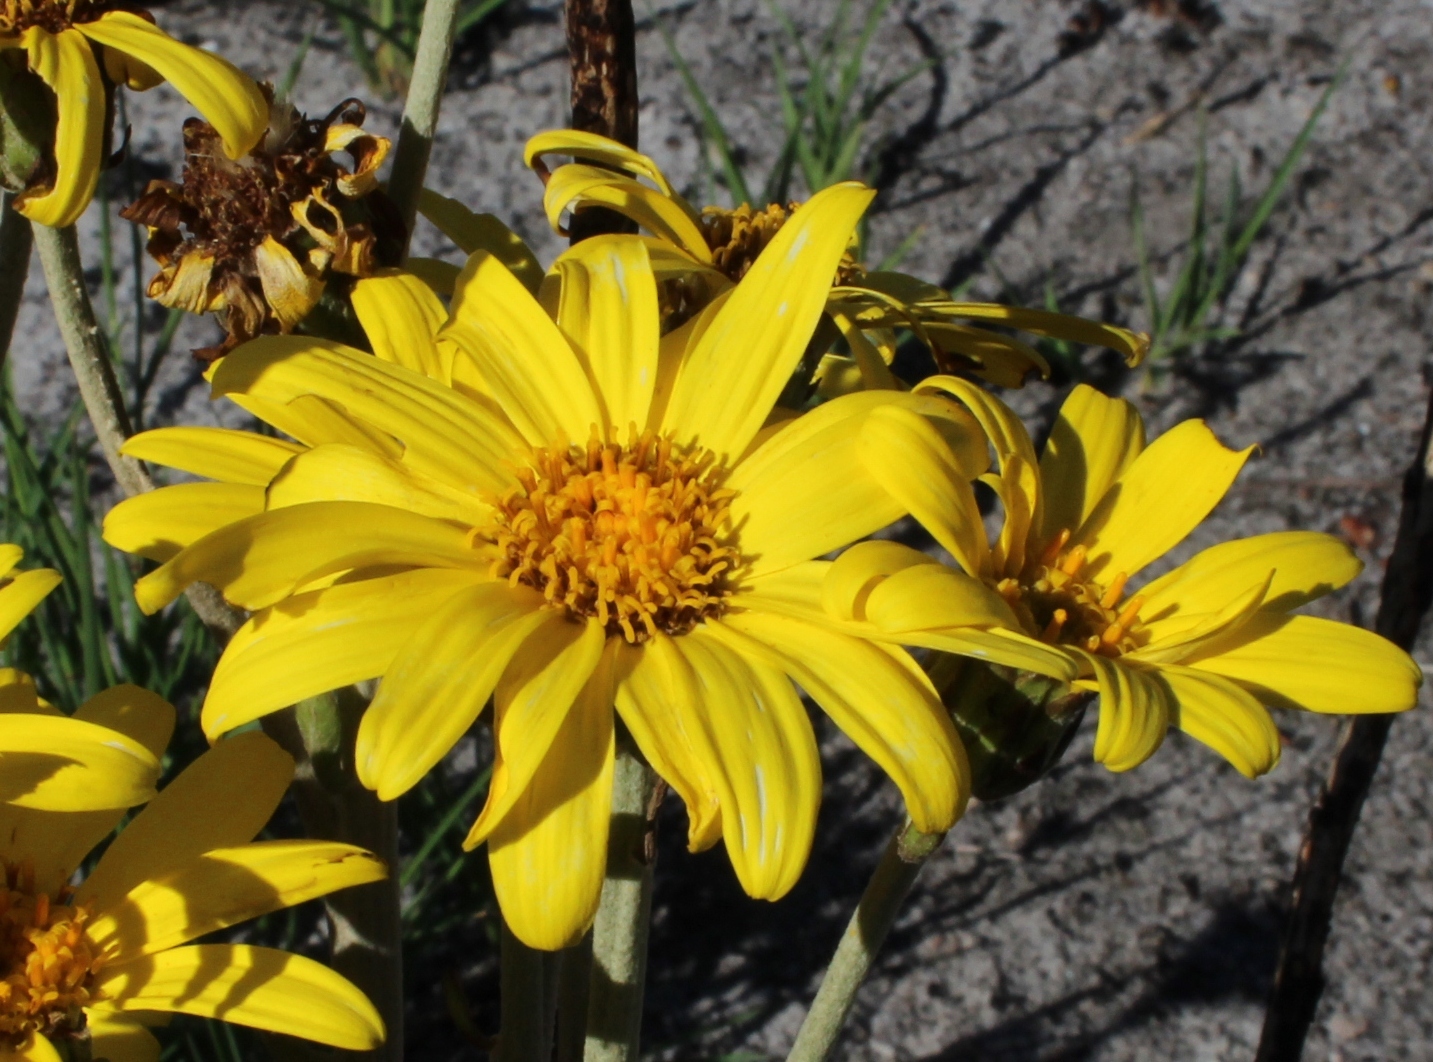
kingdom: Plantae
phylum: Tracheophyta
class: Magnoliopsida
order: Asterales
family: Asteraceae
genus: Capelio
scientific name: Capelio tabularis
